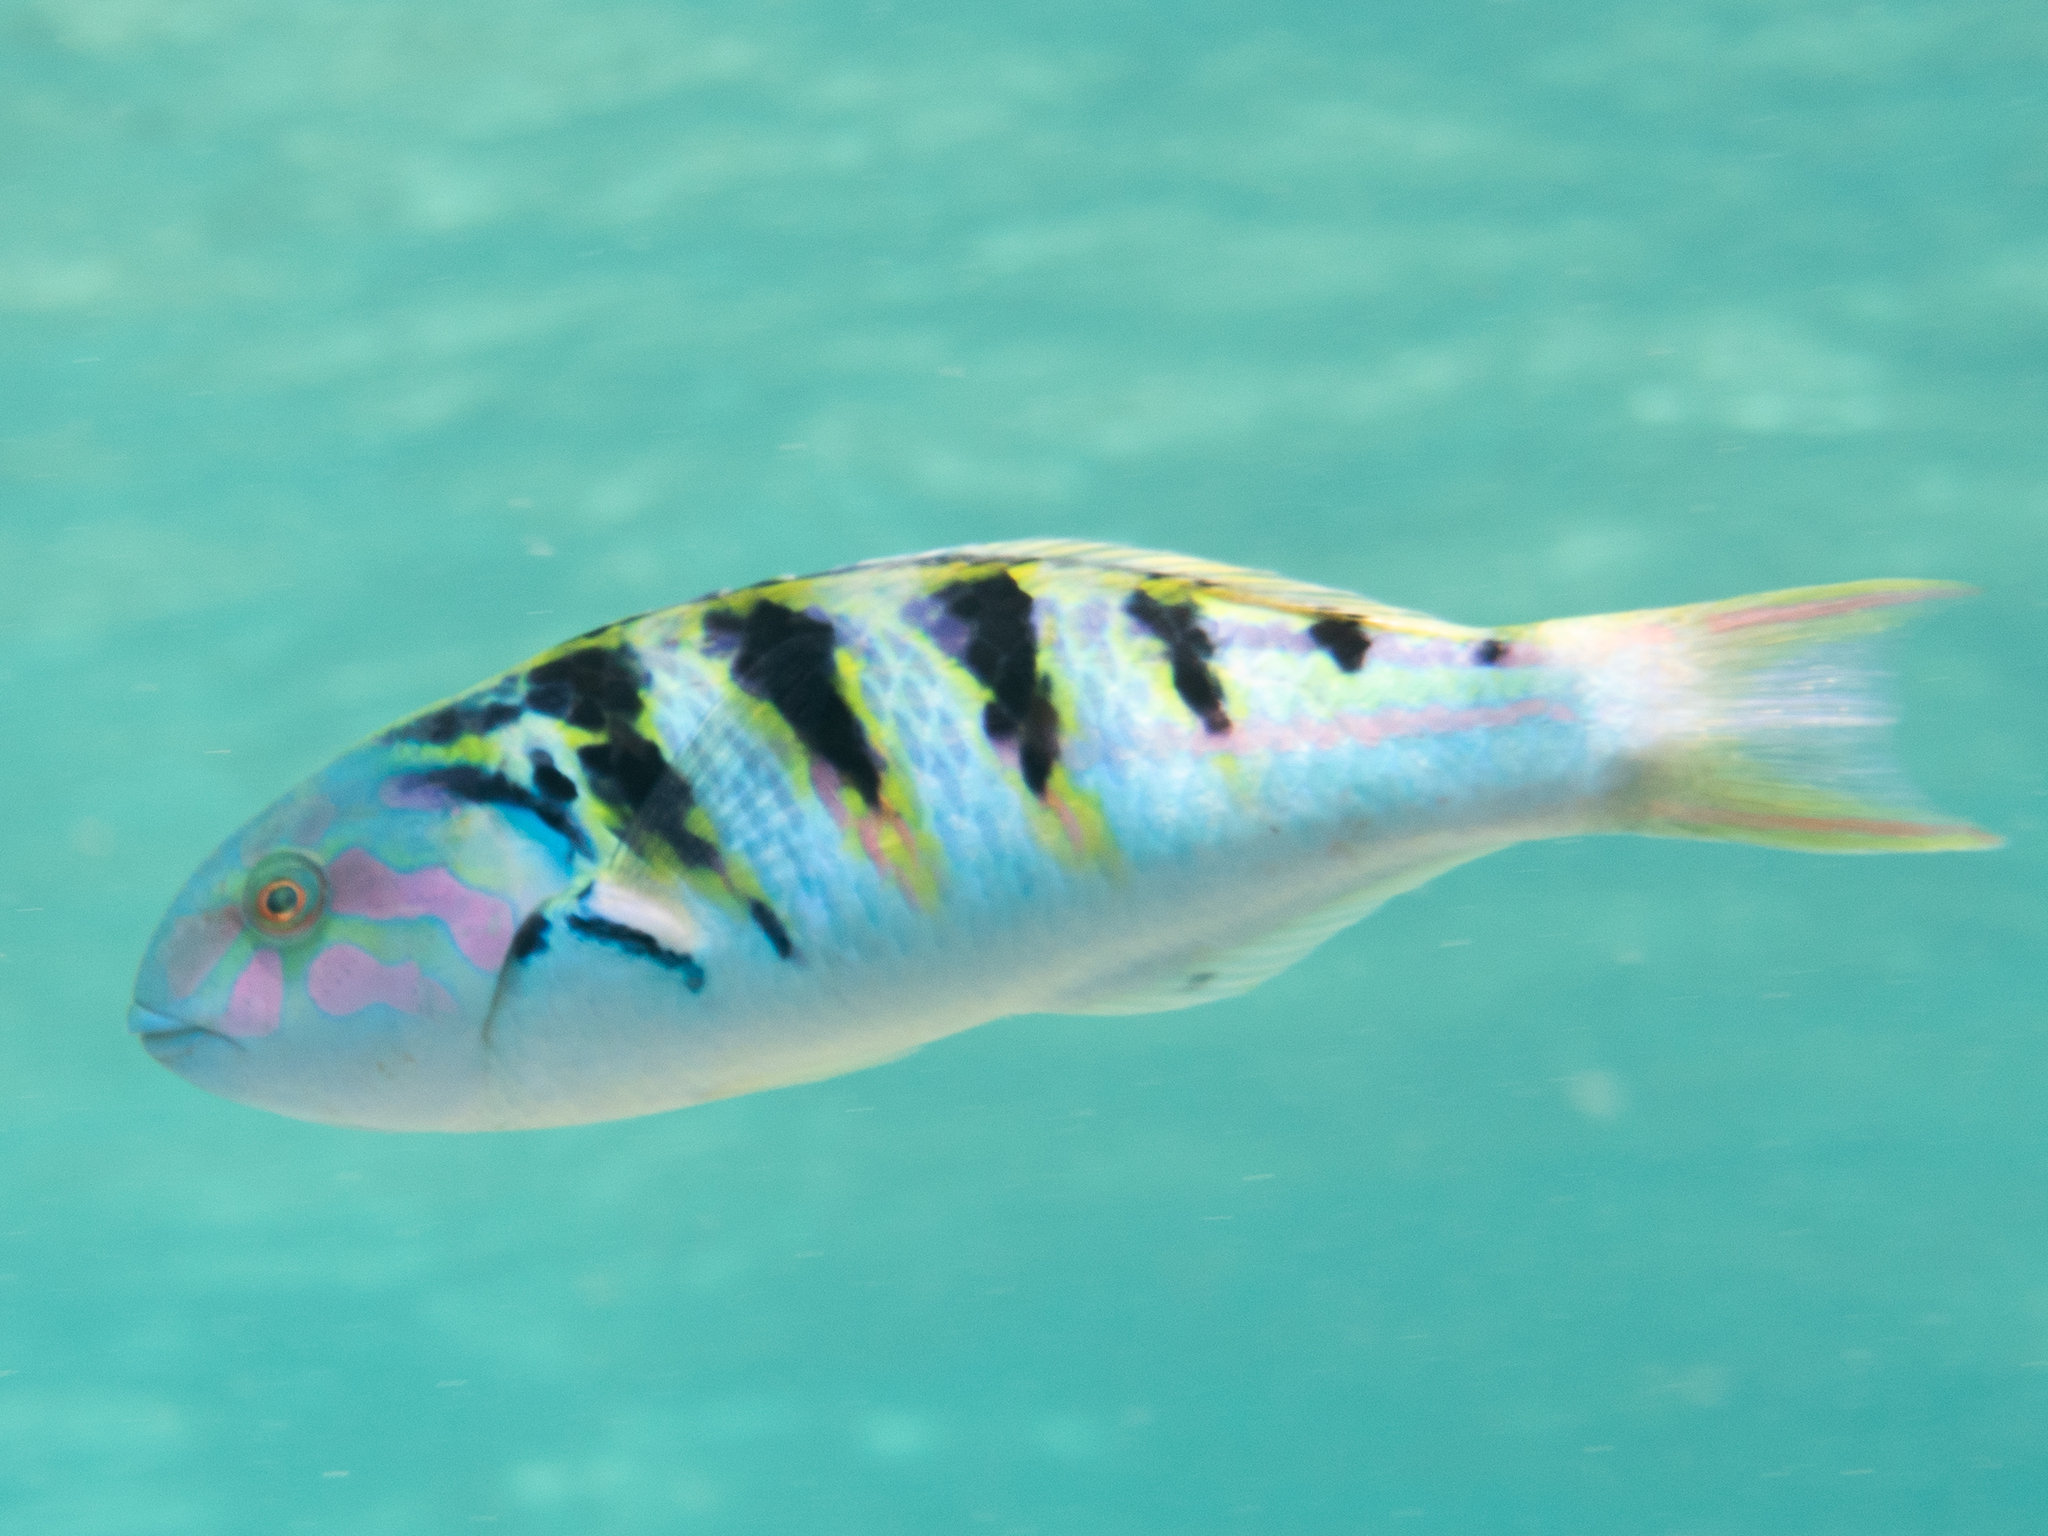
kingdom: Animalia
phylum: Chordata
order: Perciformes
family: Labridae
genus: Thalassoma
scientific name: Thalassoma hardwicke
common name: Sixbar wrasse
